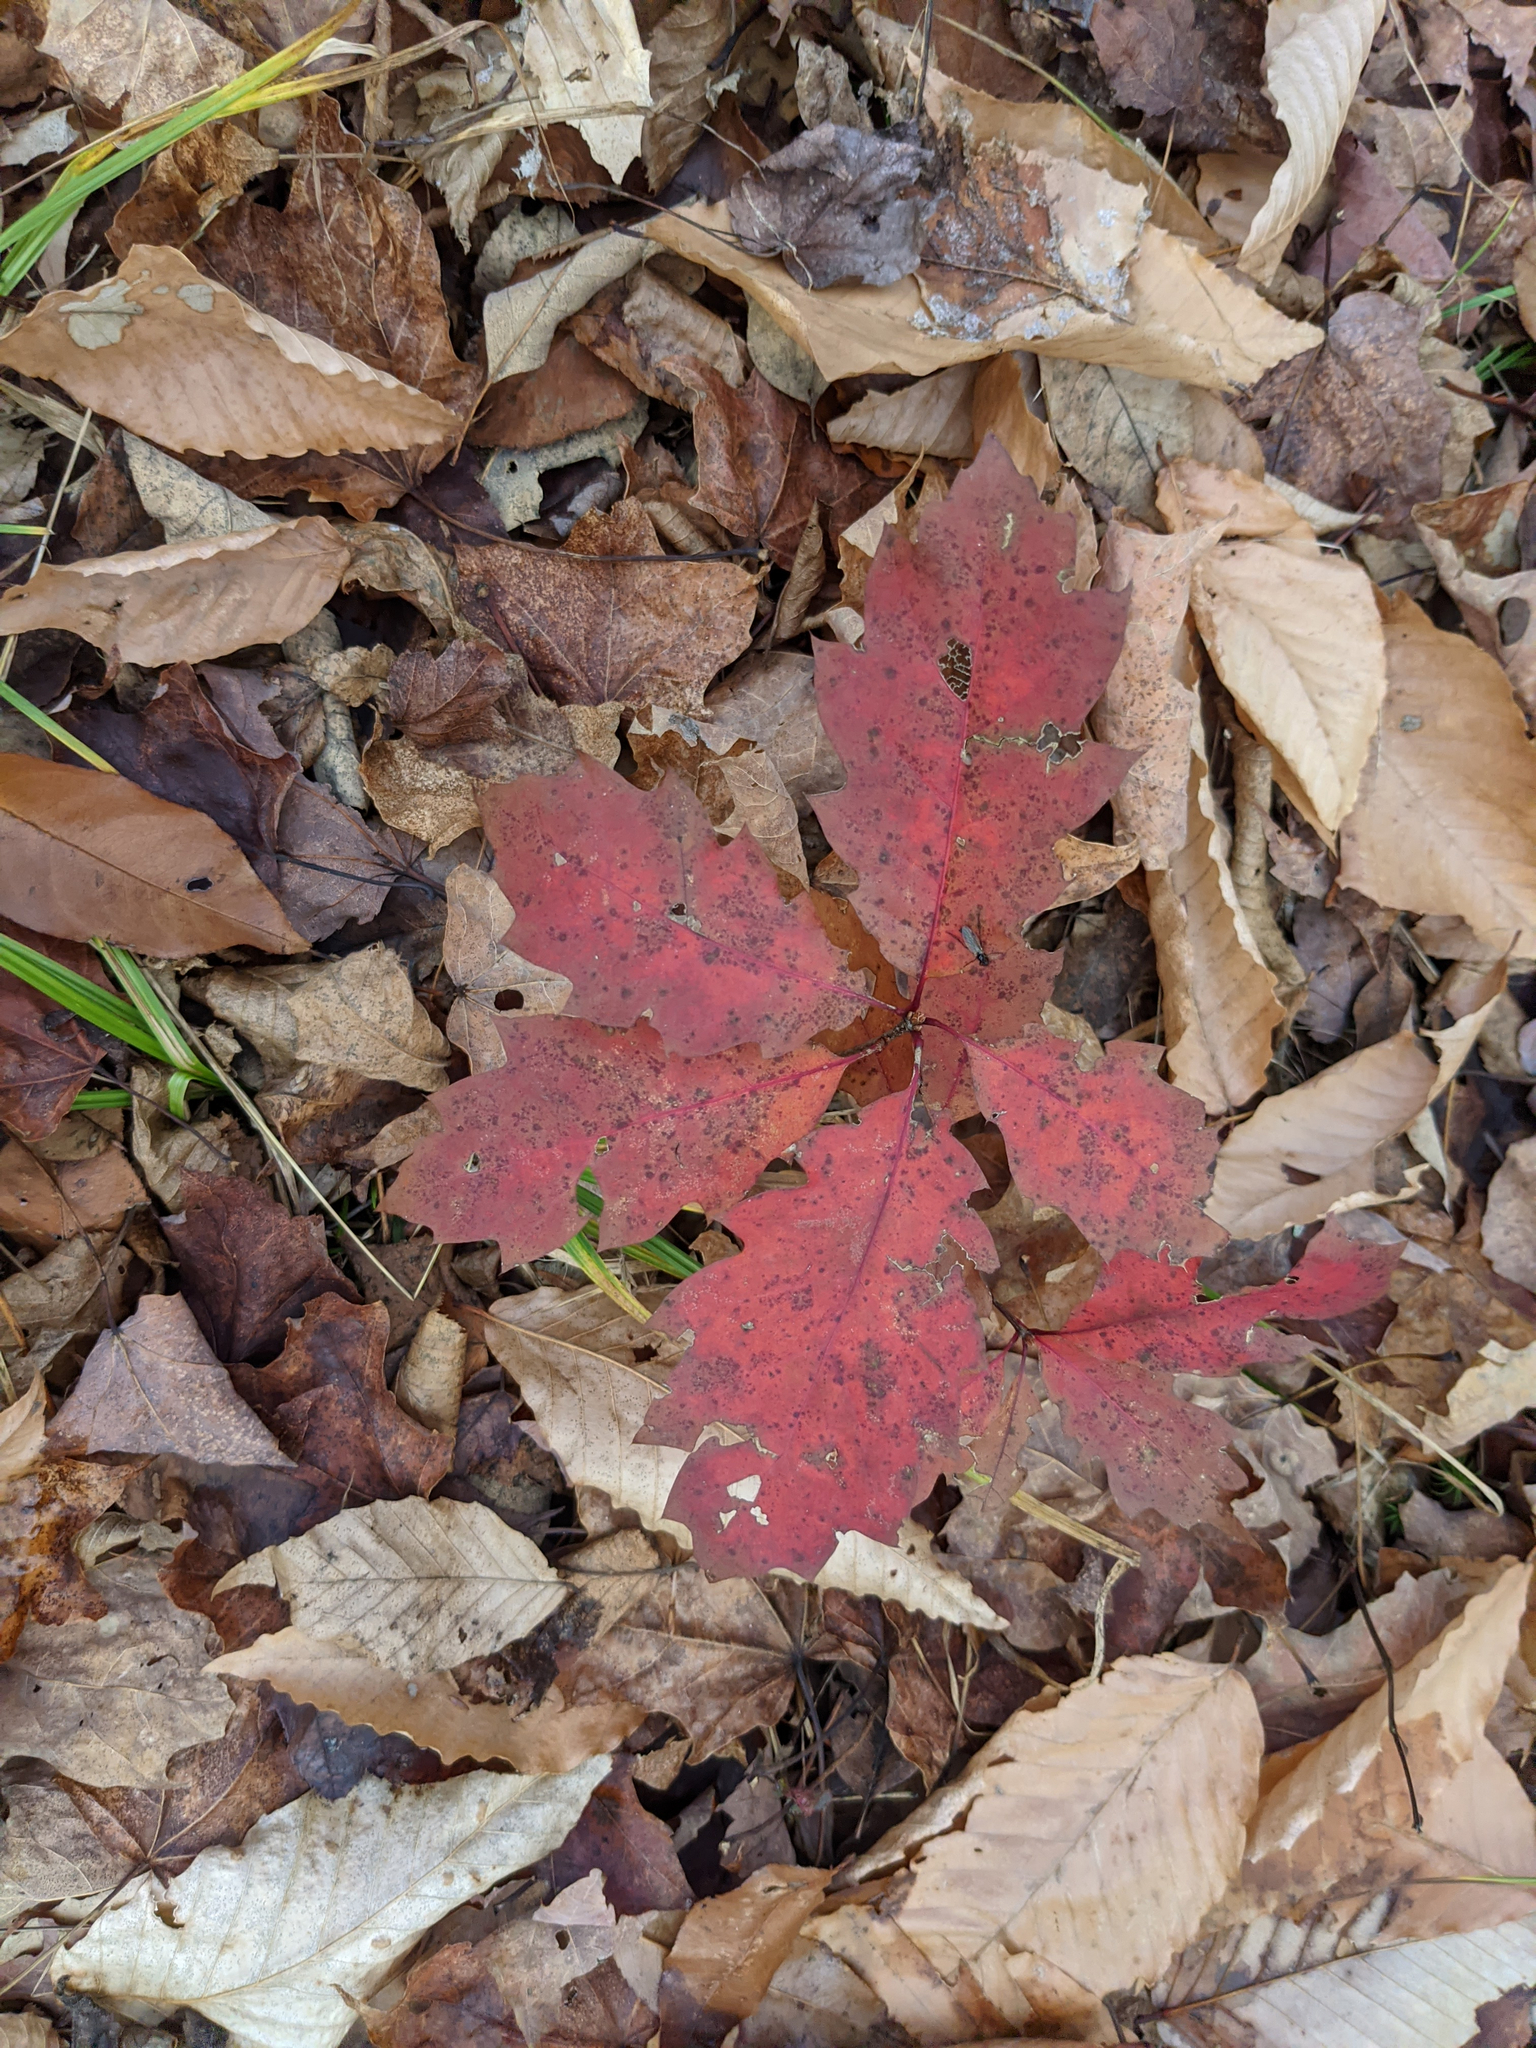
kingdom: Plantae
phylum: Tracheophyta
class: Magnoliopsida
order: Fagales
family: Fagaceae
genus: Quercus
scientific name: Quercus rubra
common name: Red oak
